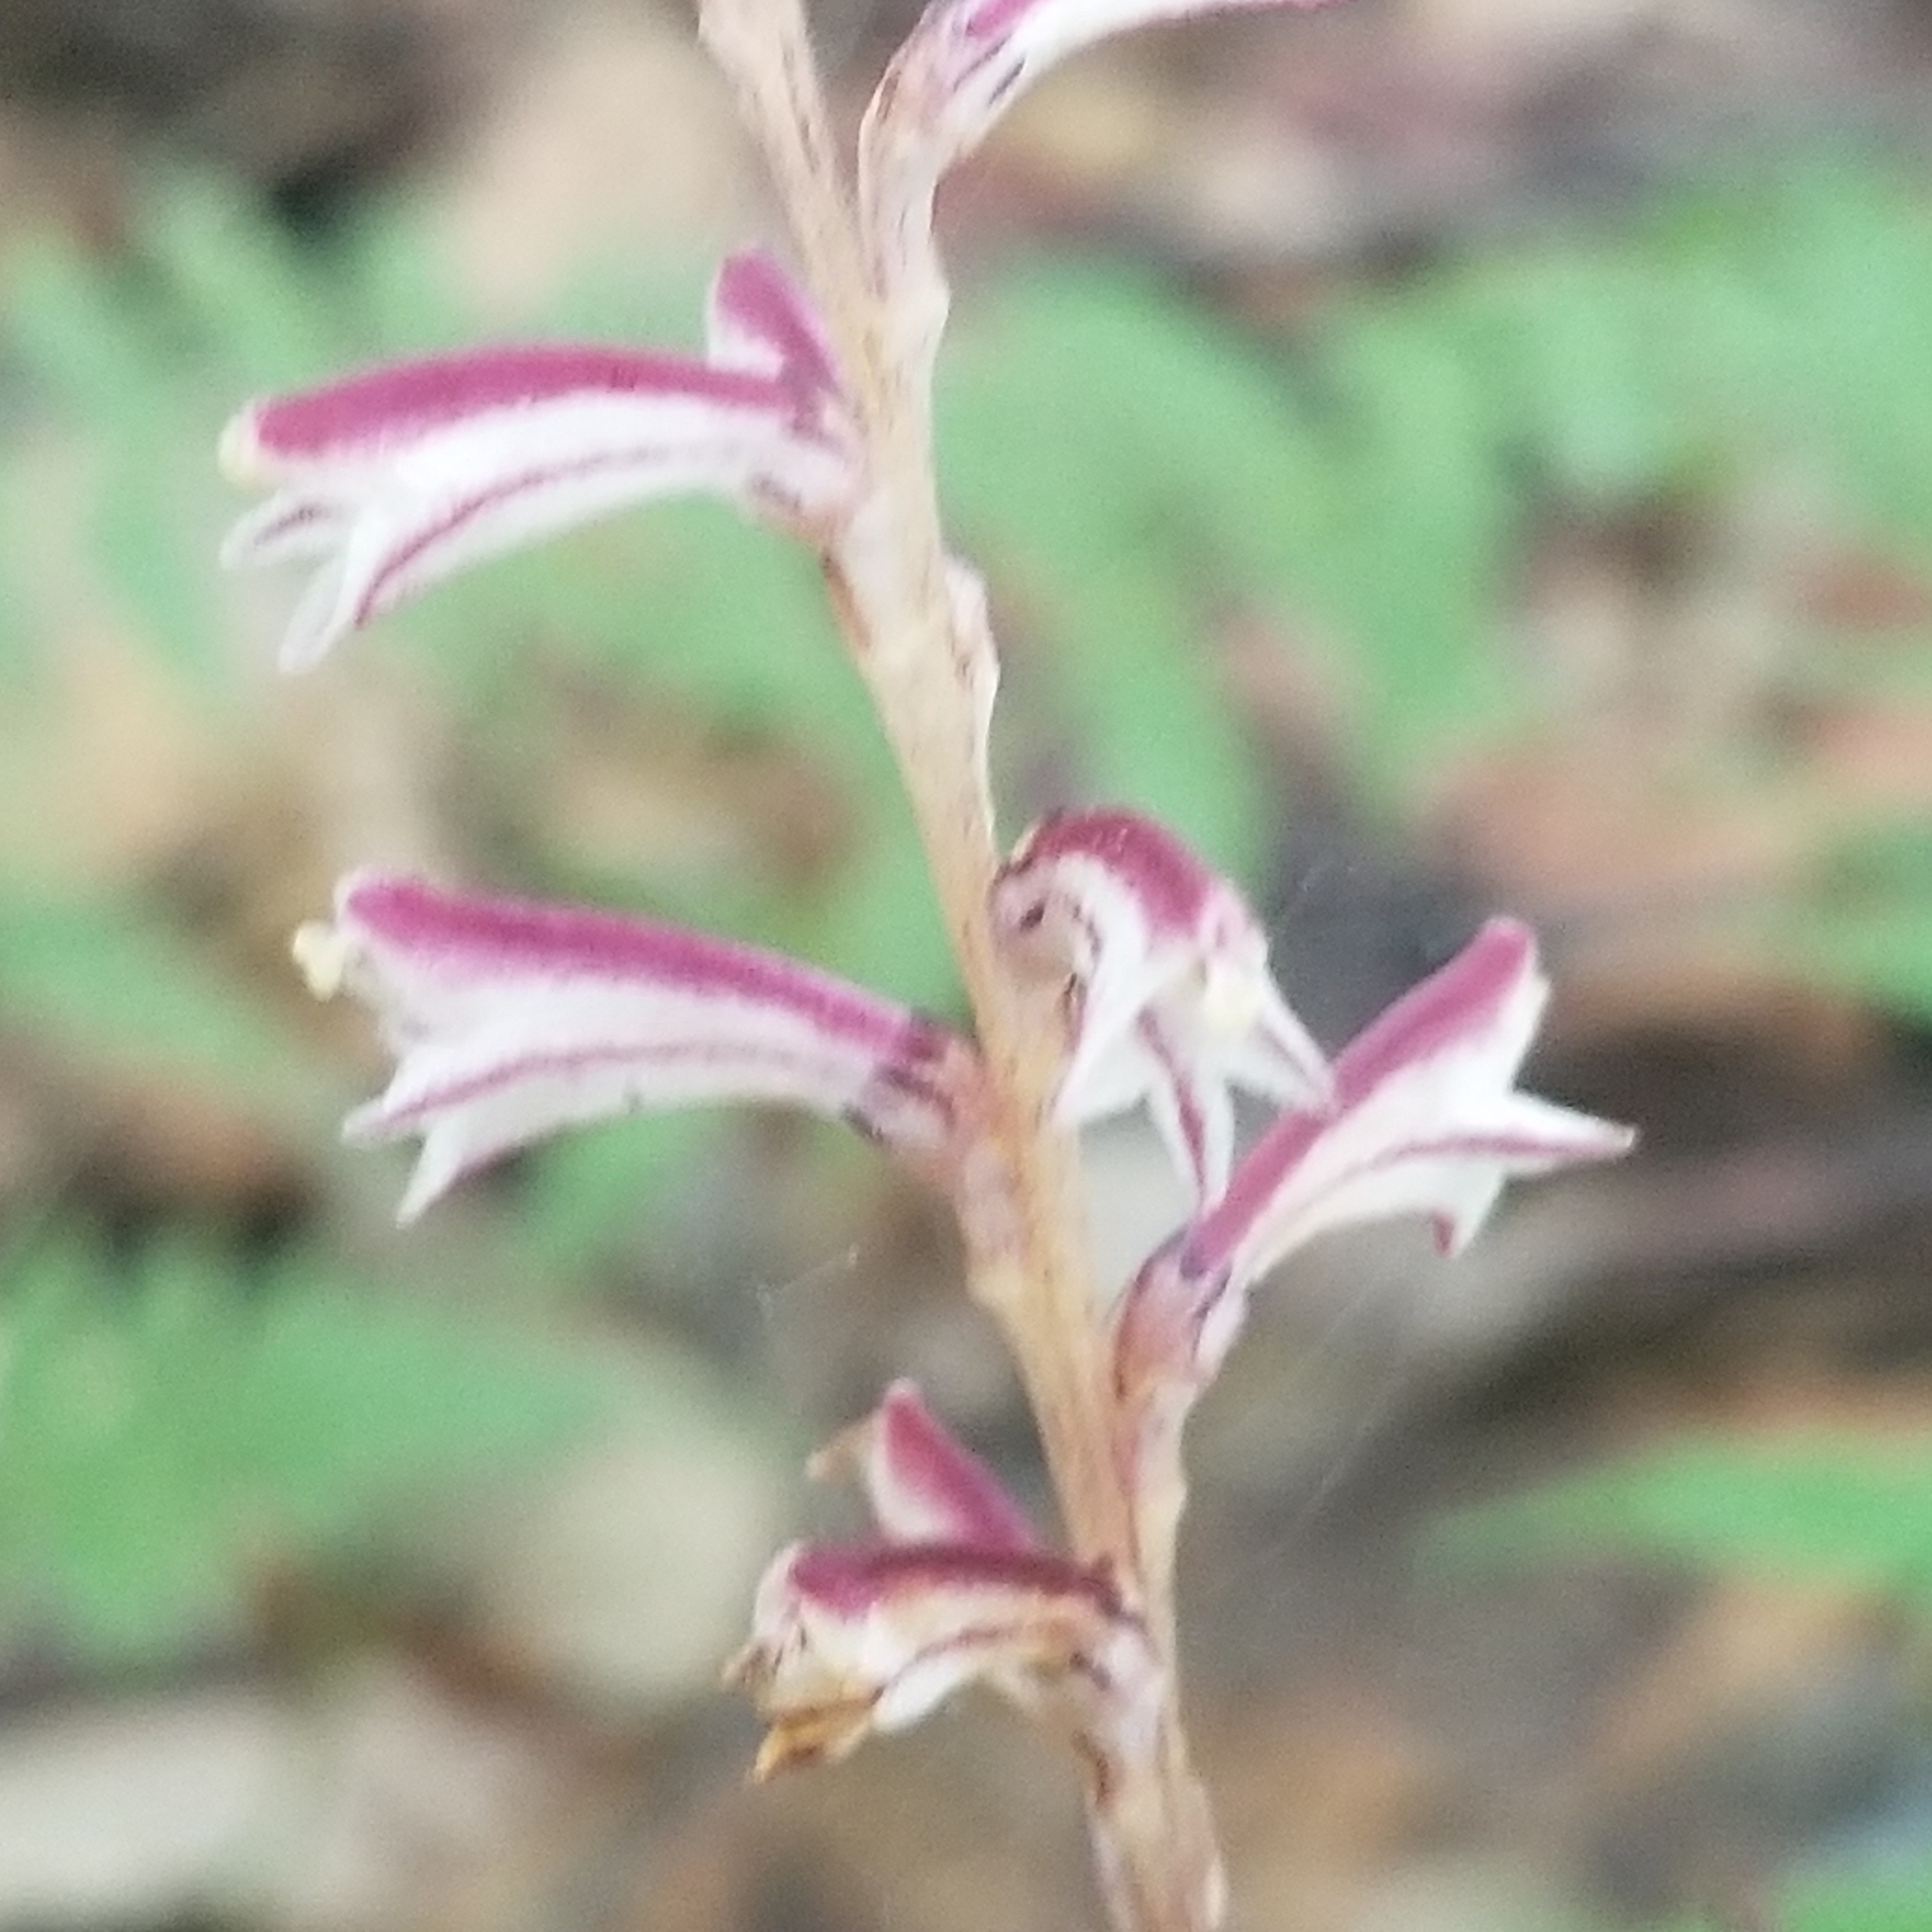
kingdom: Plantae
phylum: Tracheophyta
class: Magnoliopsida
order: Lamiales
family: Orobanchaceae
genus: Epifagus
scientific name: Epifagus virginiana
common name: Beechdrops
